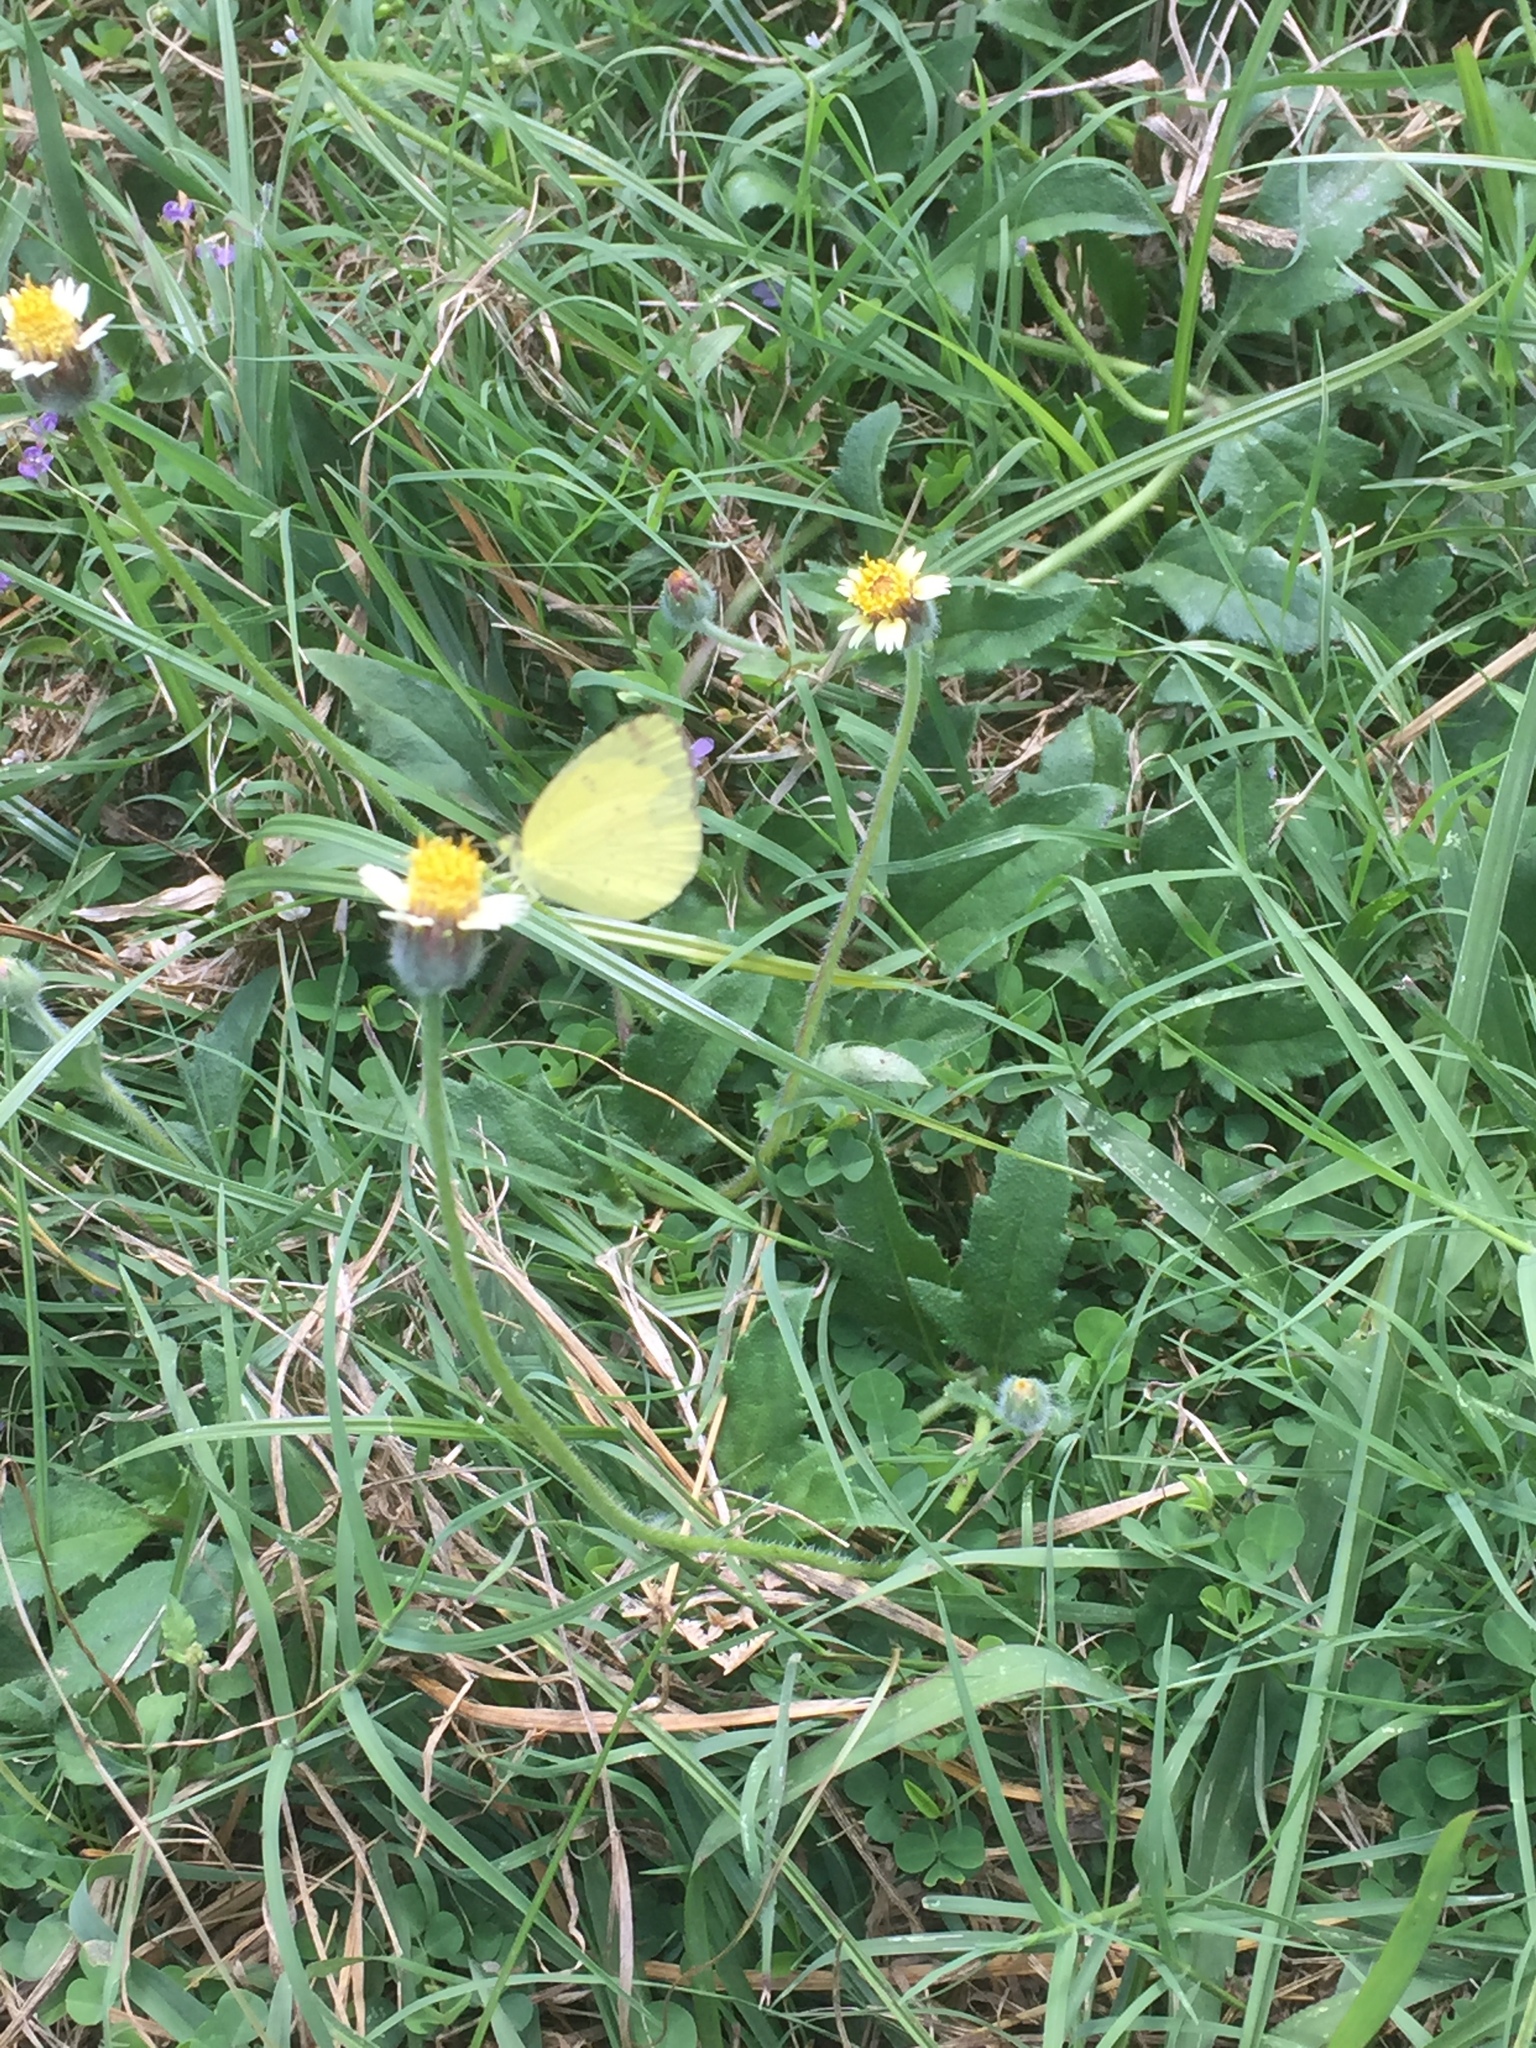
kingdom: Animalia
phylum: Arthropoda
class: Insecta
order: Lepidoptera
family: Pieridae
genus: Eurema
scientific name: Eurema hecabe
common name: Pale grass yellow
